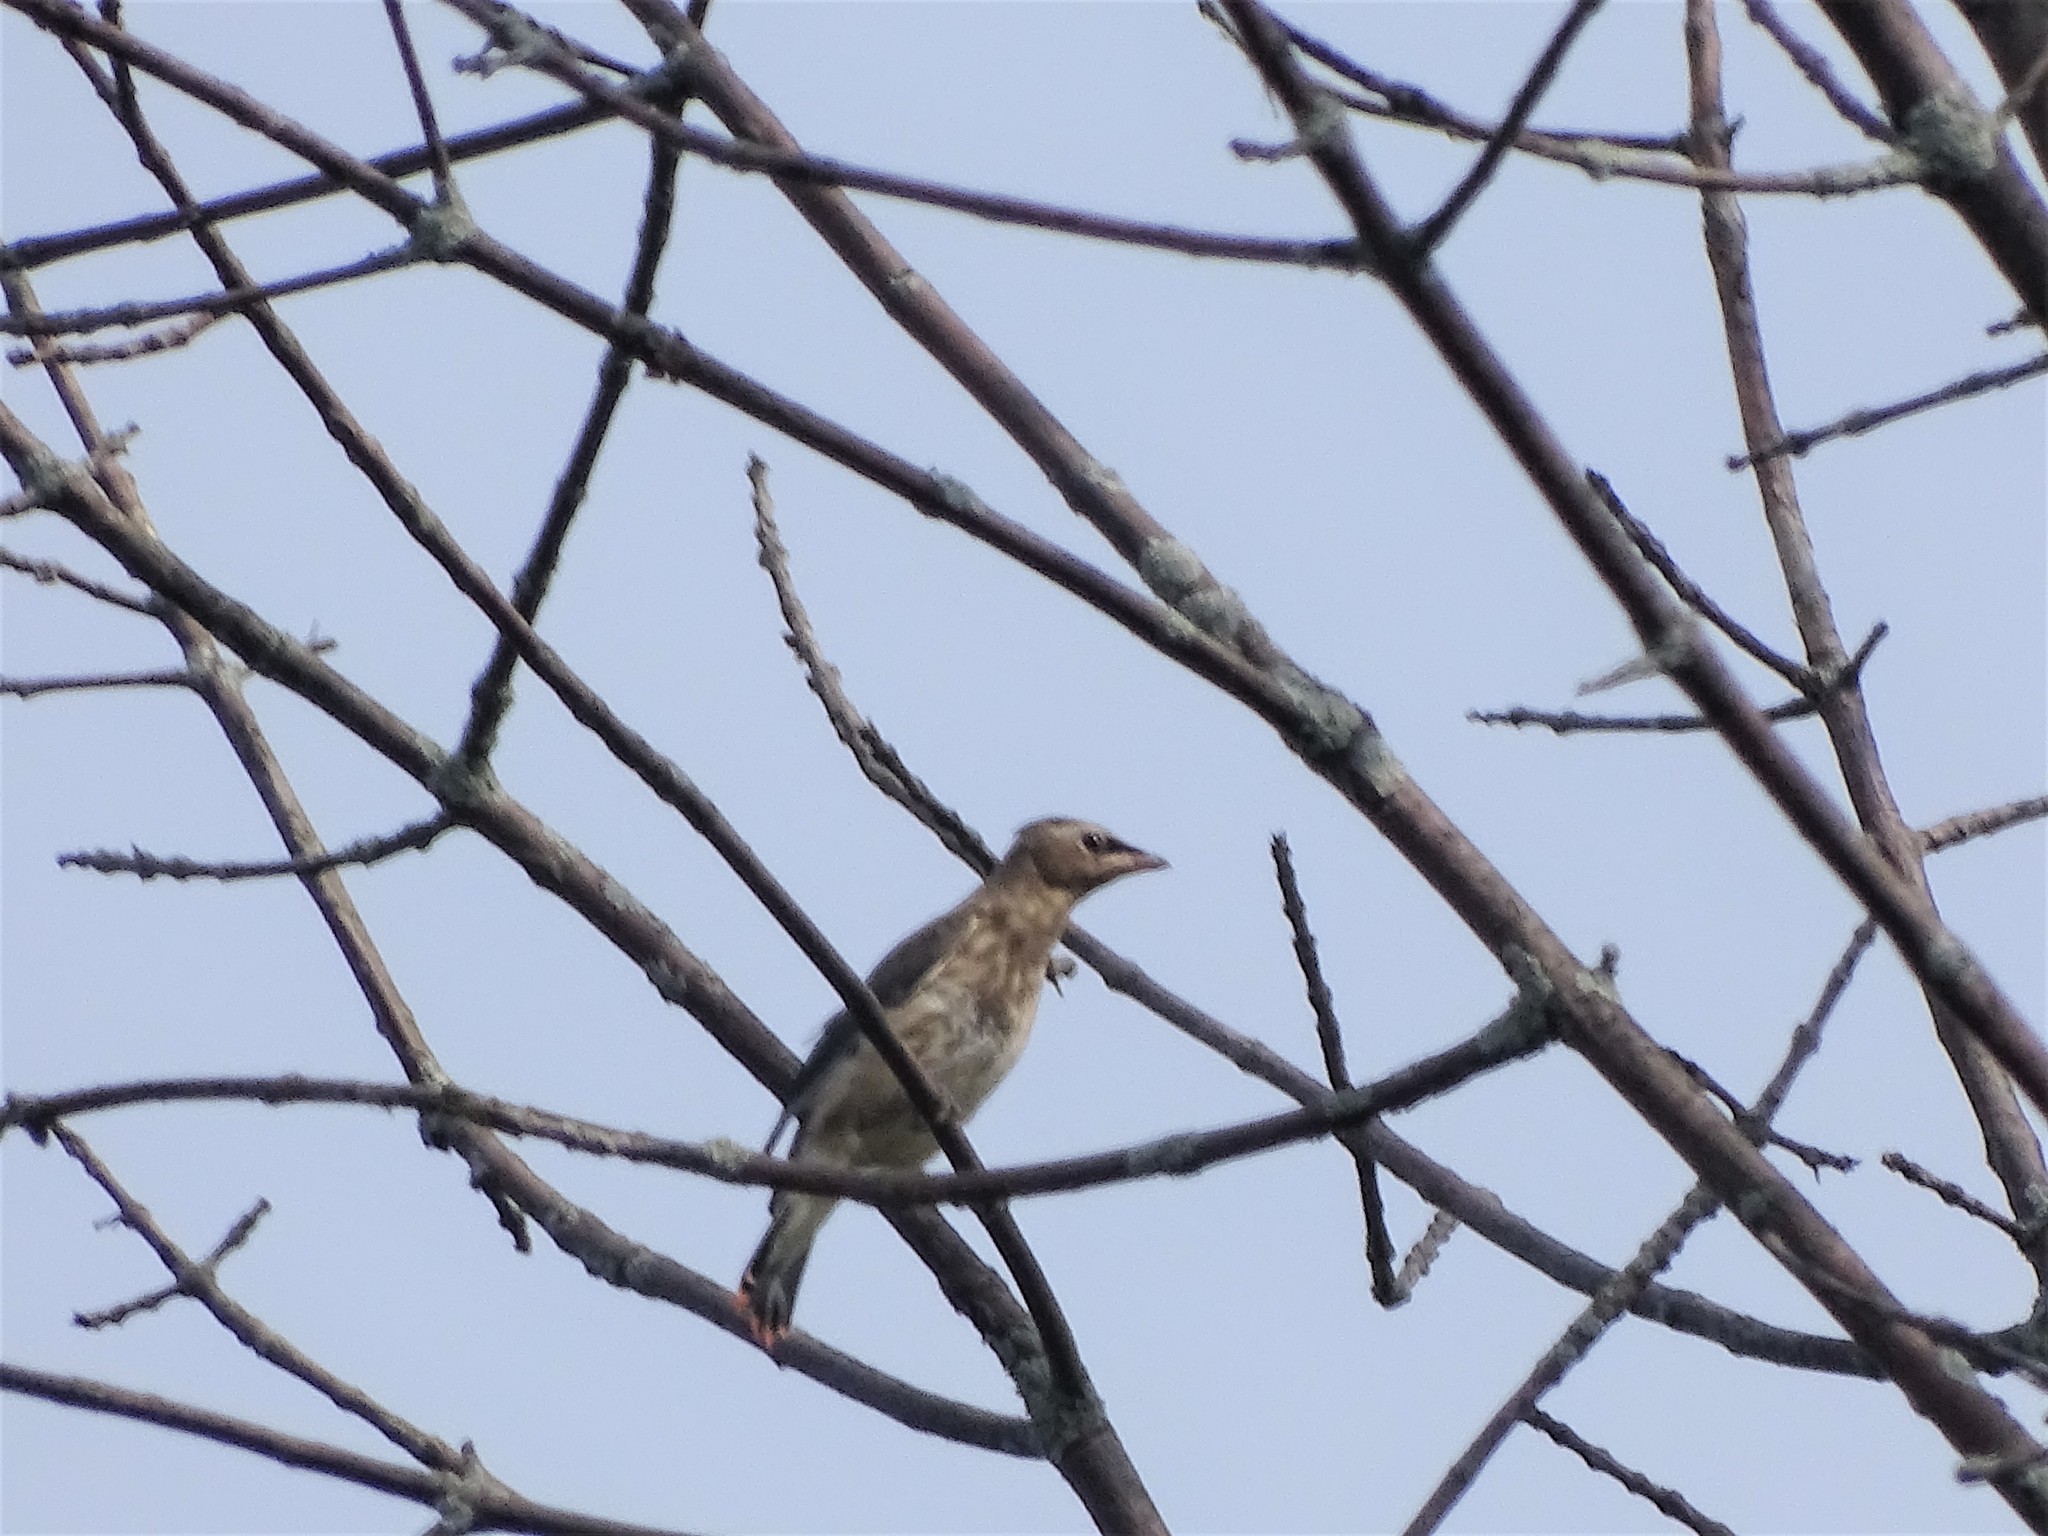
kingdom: Animalia
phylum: Chordata
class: Aves
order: Passeriformes
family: Bombycillidae
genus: Bombycilla
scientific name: Bombycilla cedrorum
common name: Cedar waxwing
